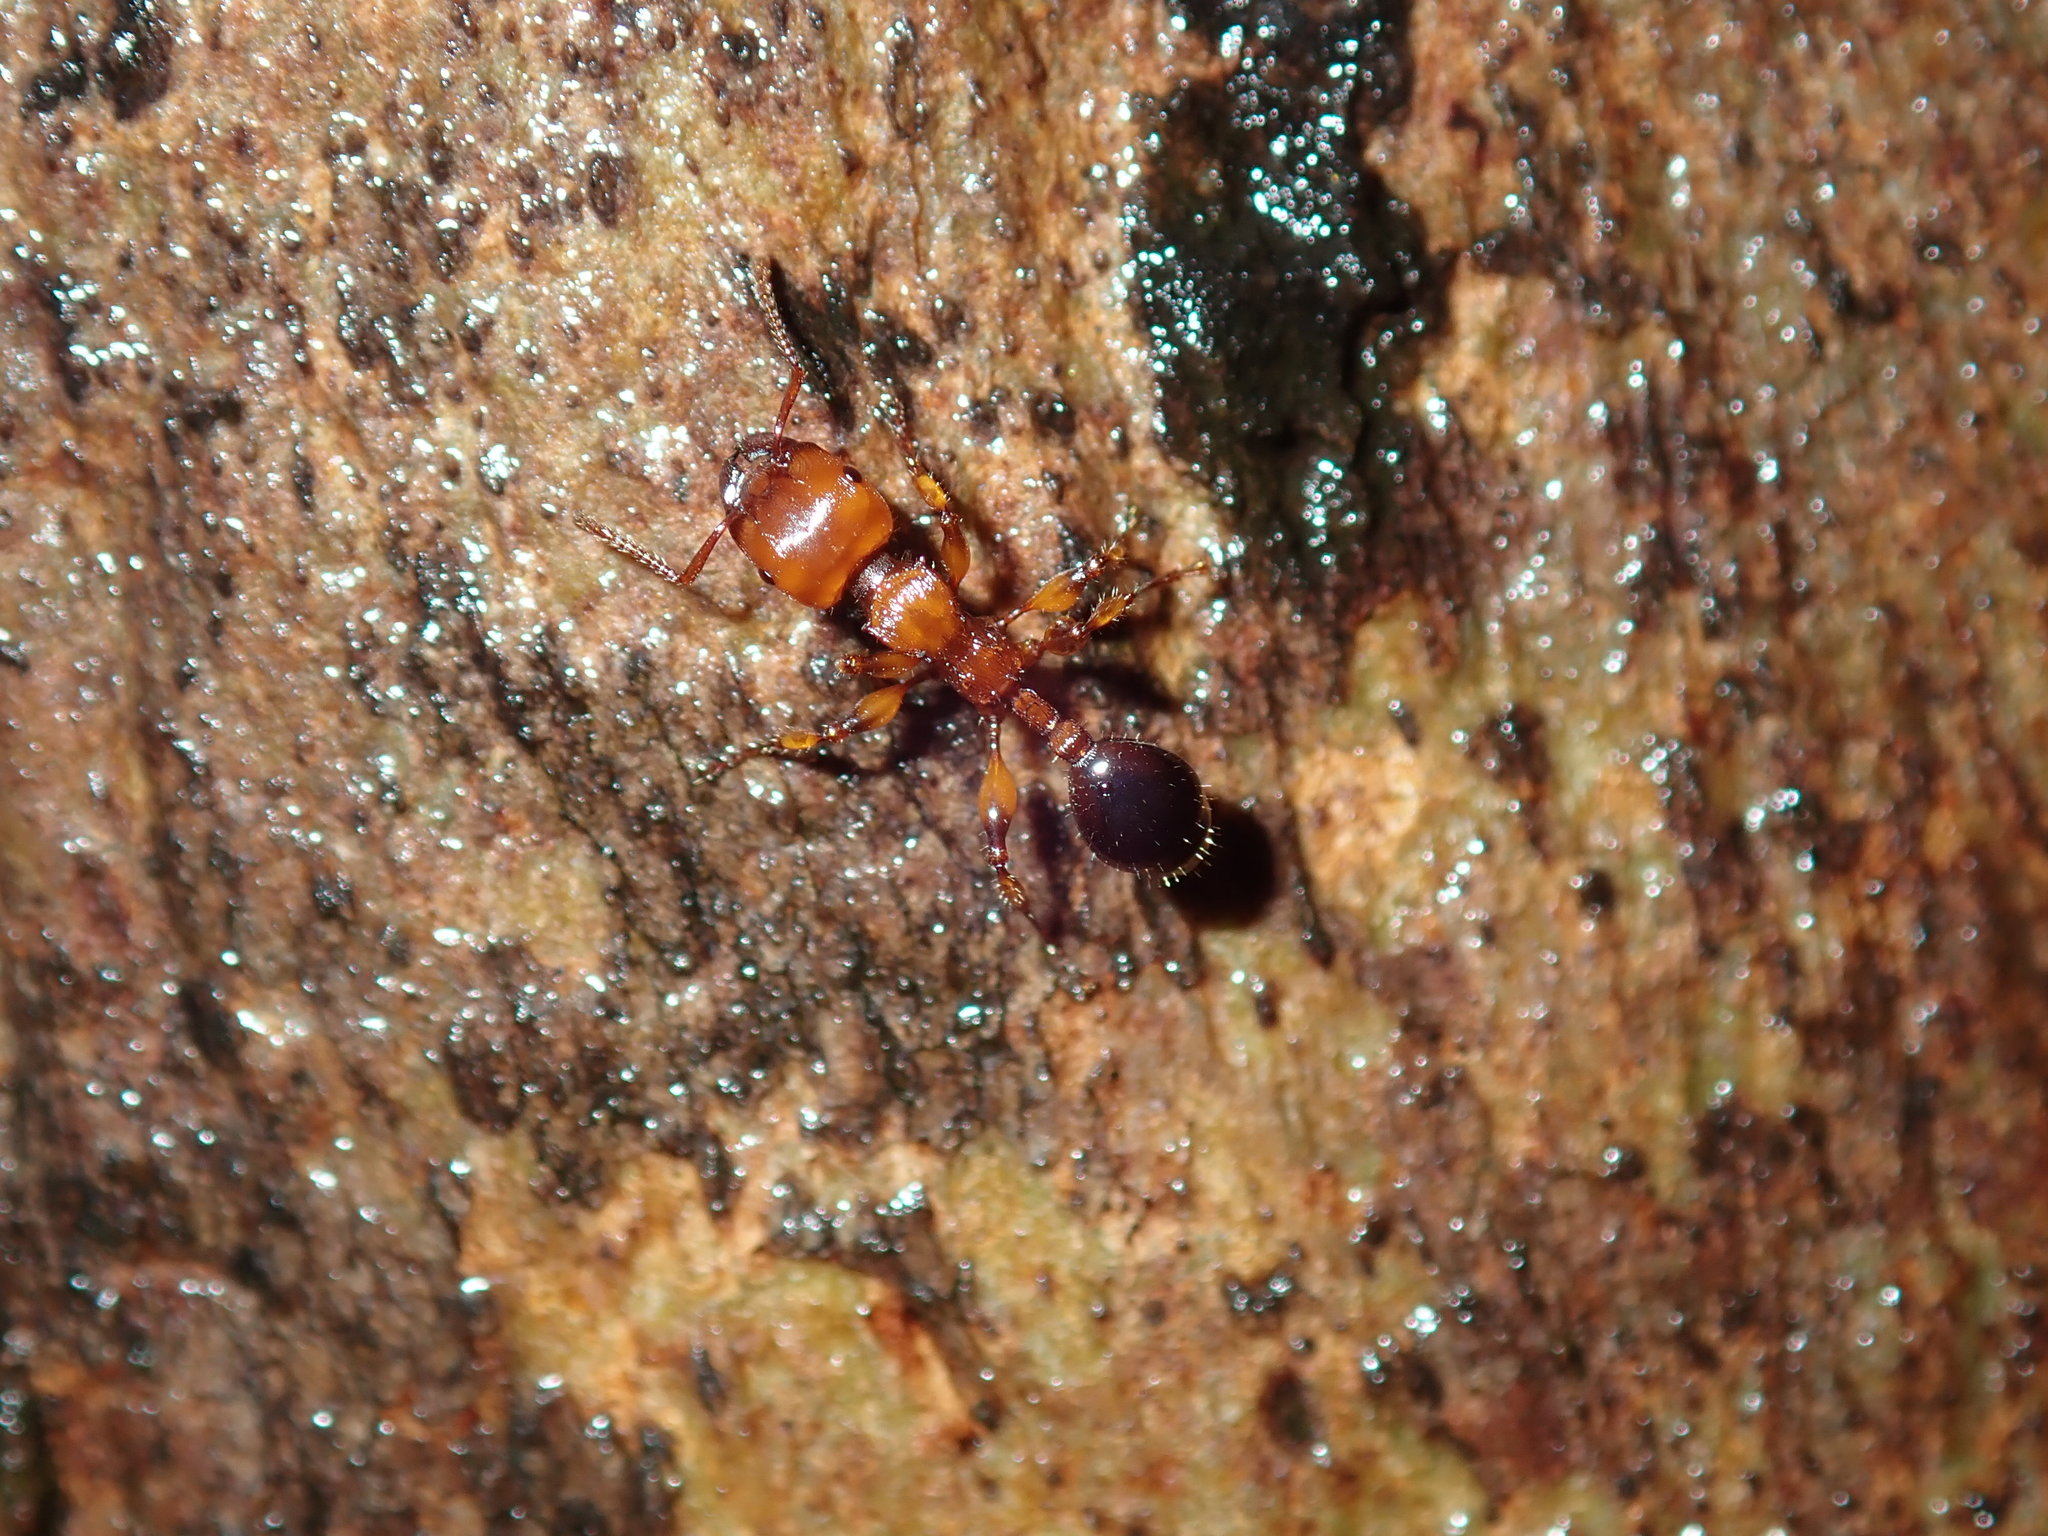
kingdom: Animalia
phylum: Arthropoda
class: Insecta
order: Hymenoptera
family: Formicidae
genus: Podomyrma
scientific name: Podomyrma gratiosa
